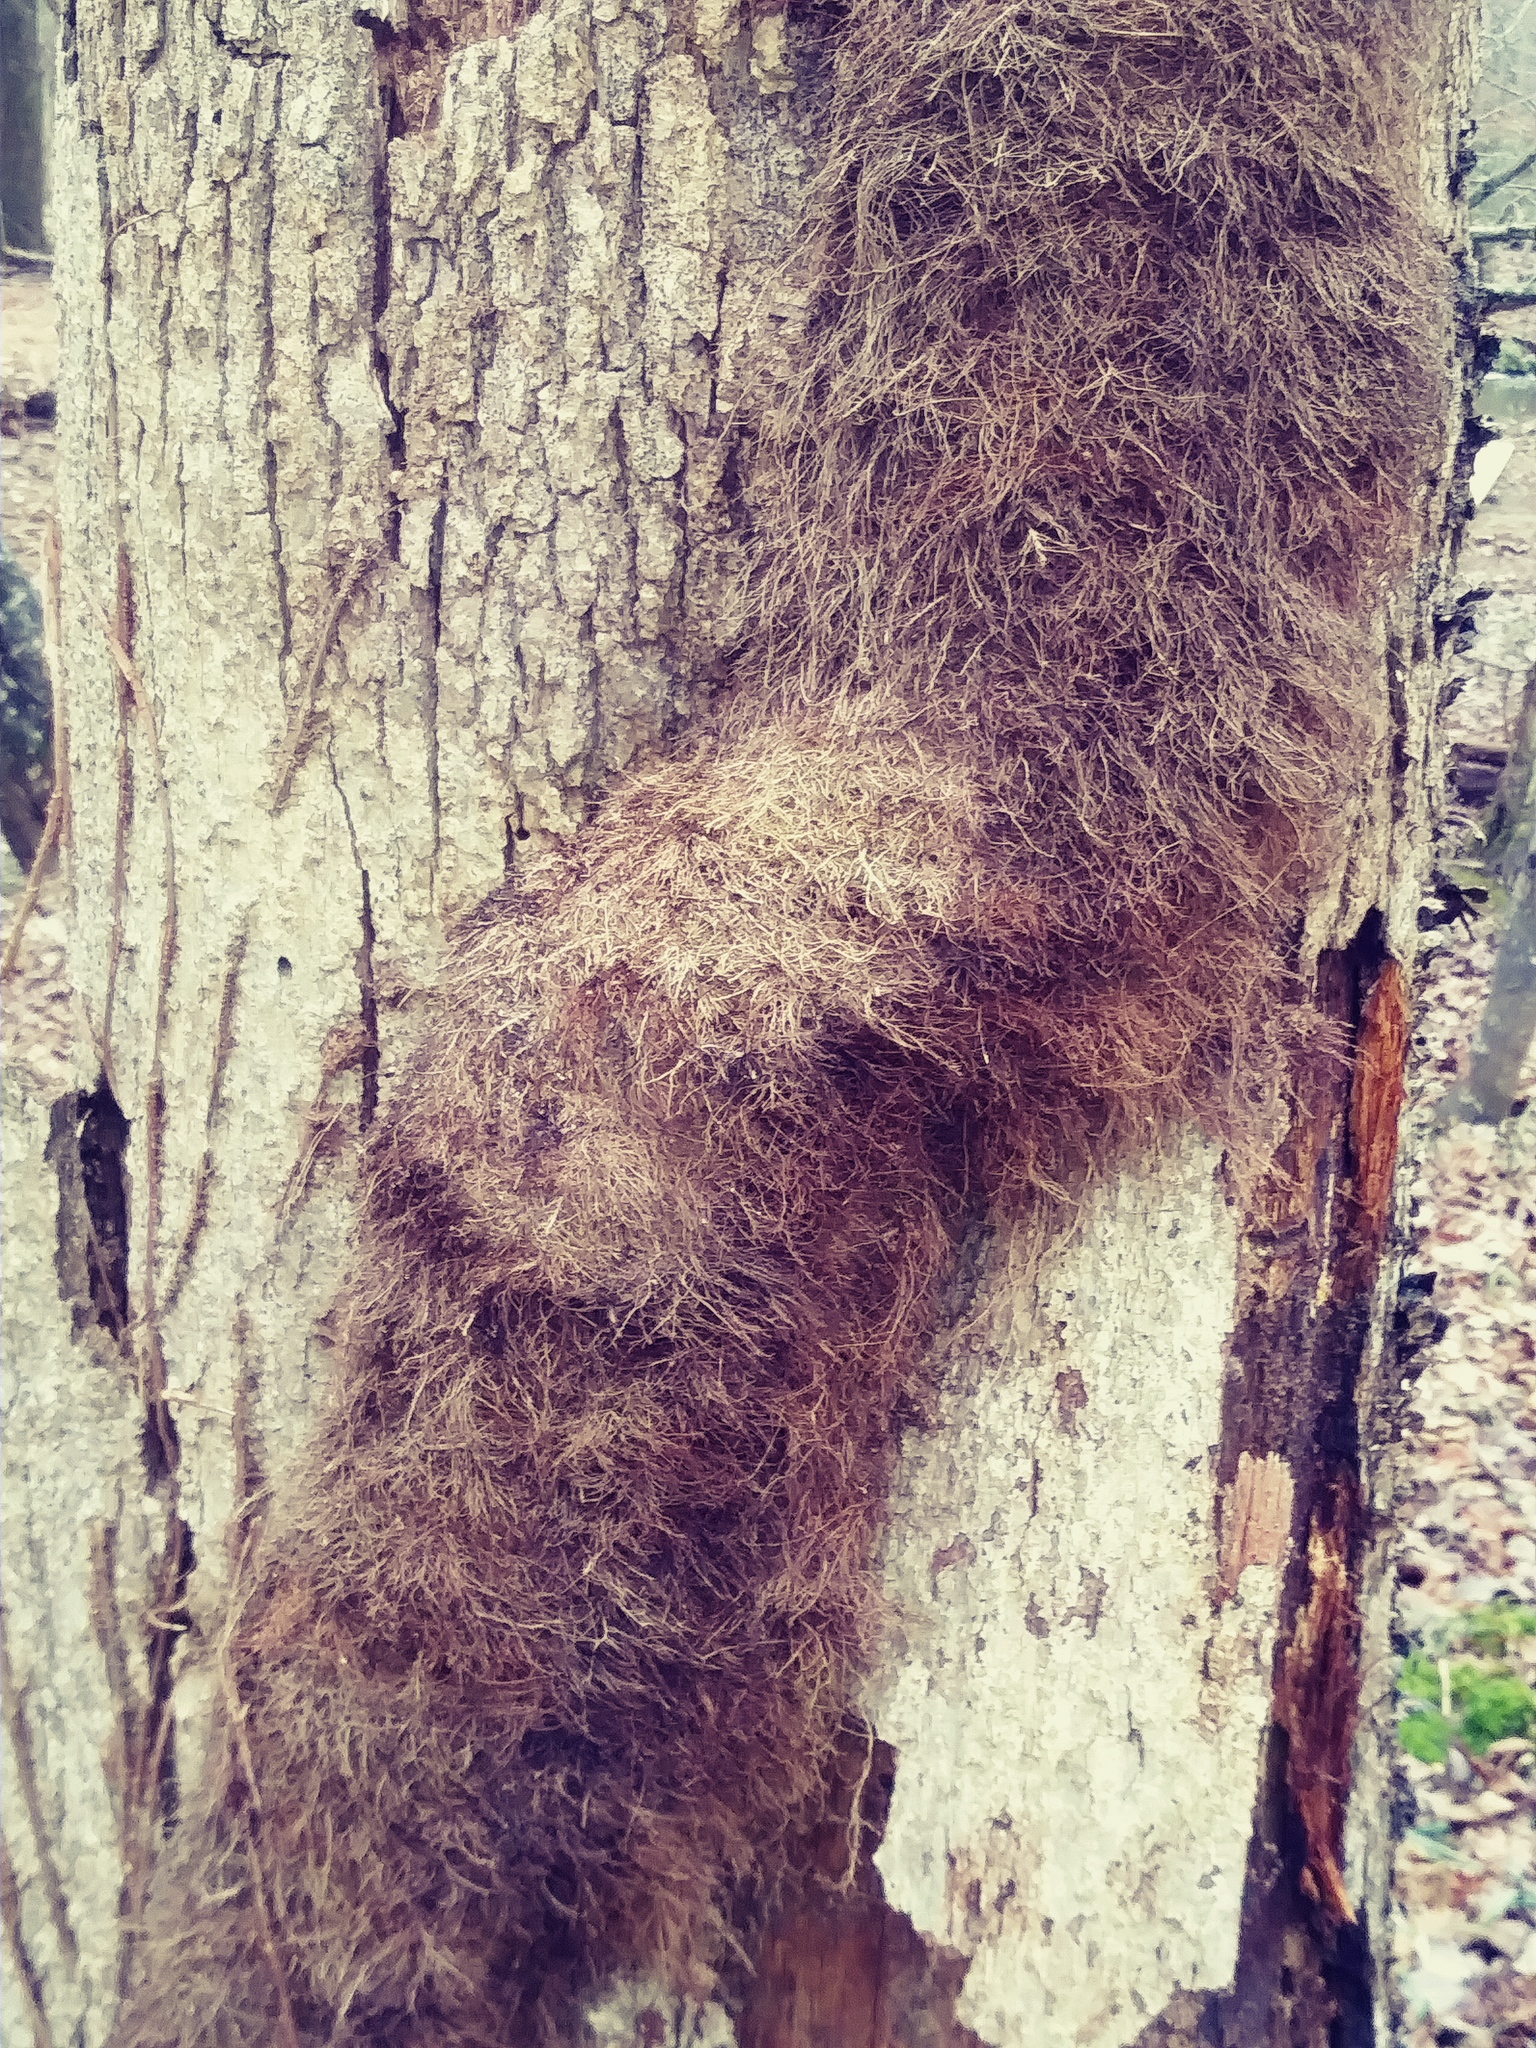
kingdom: Plantae
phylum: Tracheophyta
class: Magnoliopsida
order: Sapindales
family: Anacardiaceae
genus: Toxicodendron
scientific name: Toxicodendron radicans
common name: Poison ivy
